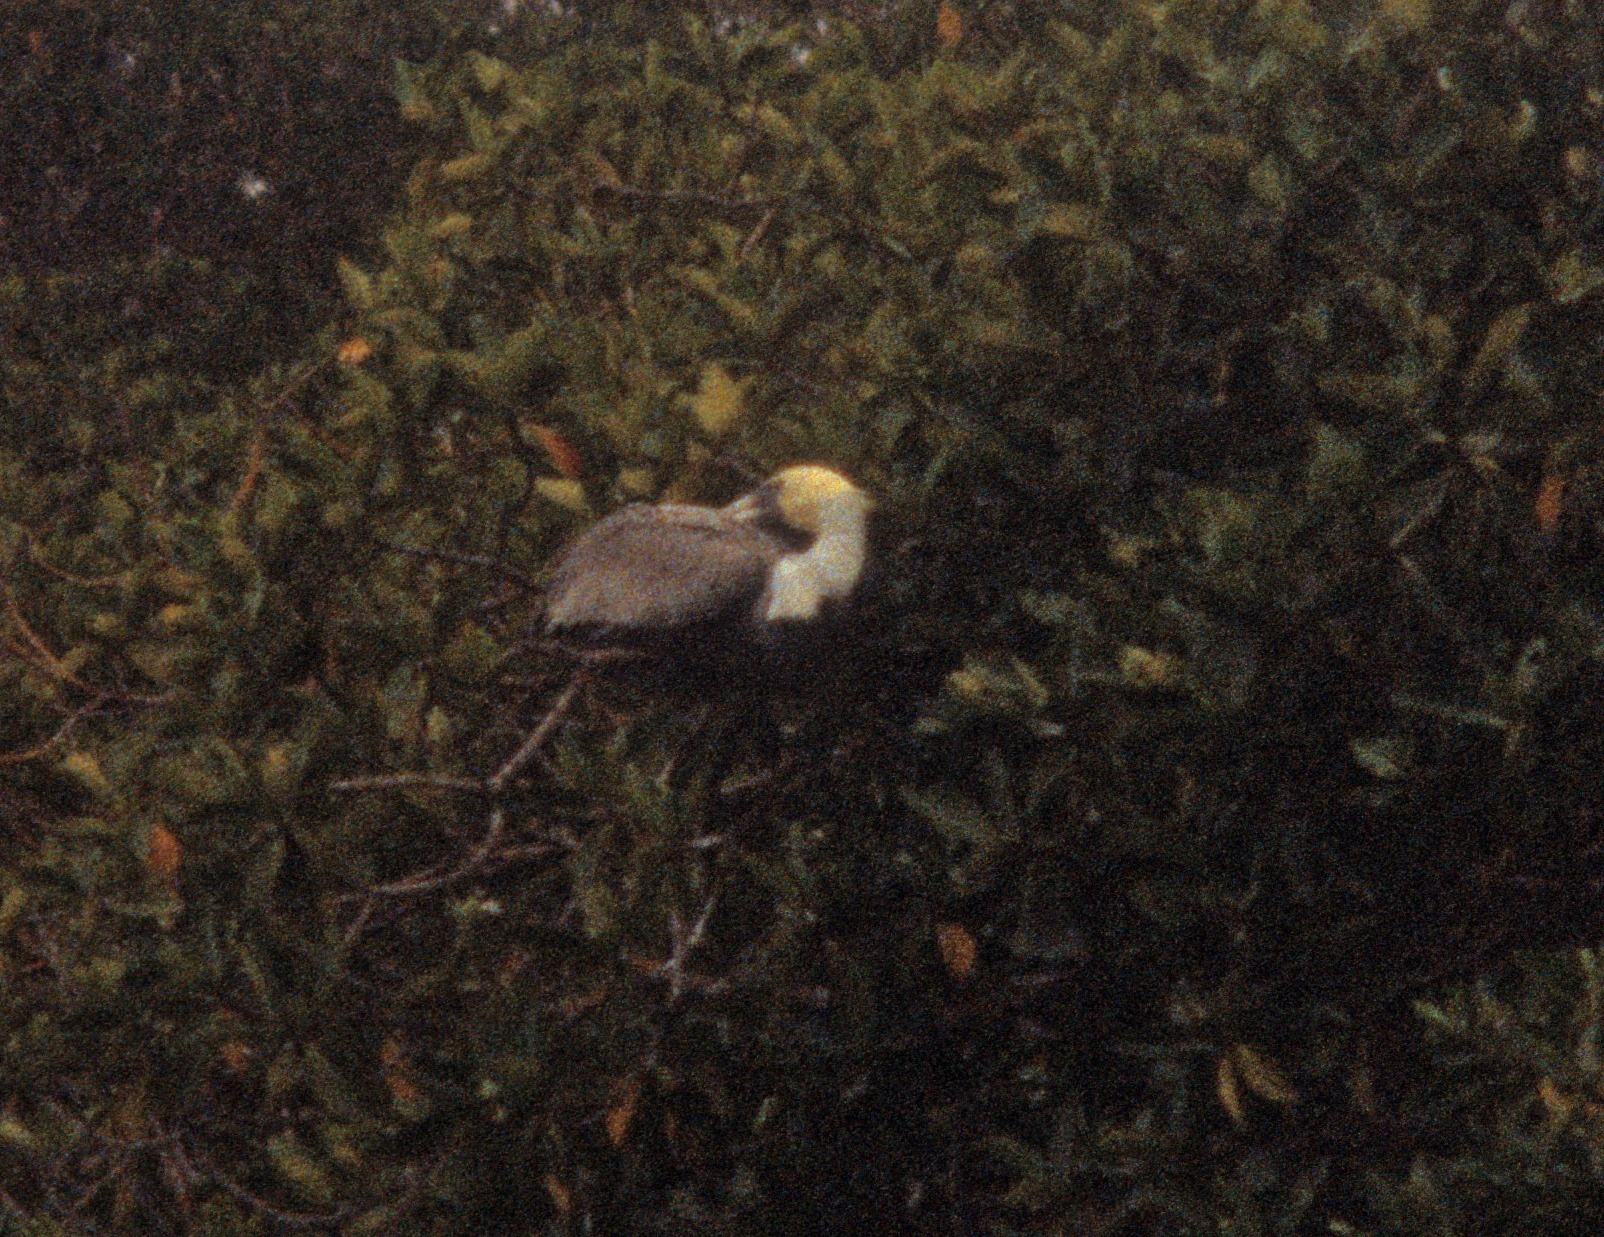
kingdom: Animalia
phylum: Chordata
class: Aves
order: Pelecaniformes
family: Pelecanidae
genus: Pelecanus
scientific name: Pelecanus occidentalis
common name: Brown pelican
